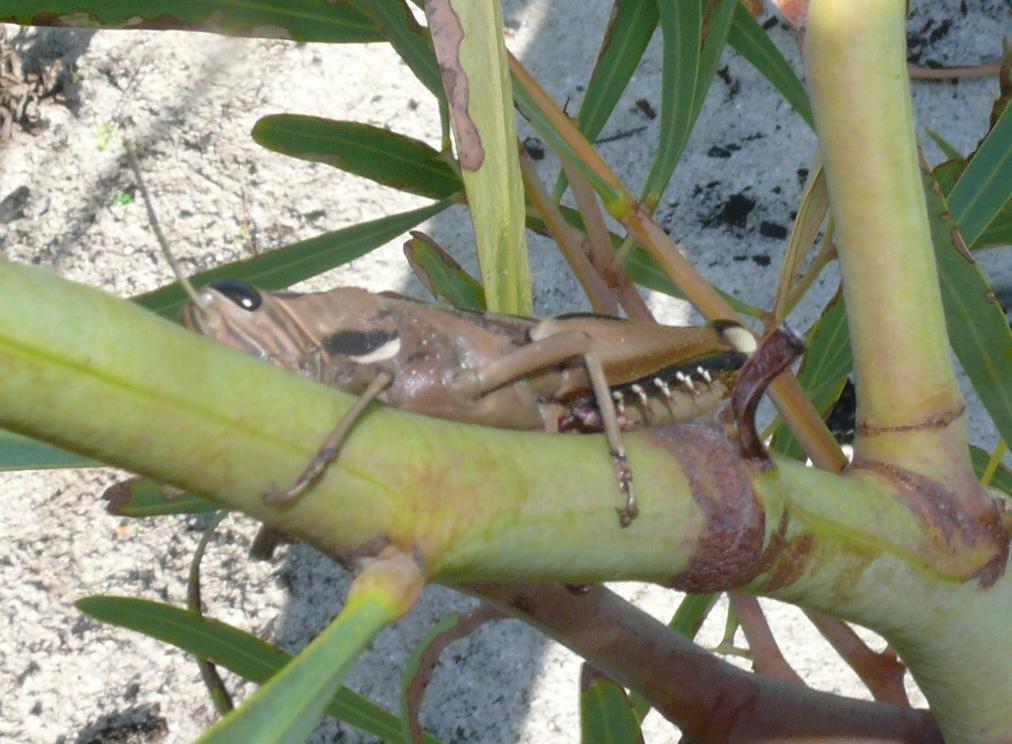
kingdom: Animalia
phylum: Arthropoda
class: Insecta
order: Orthoptera
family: Acrididae
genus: Acanthacris
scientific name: Acanthacris ruficornis
